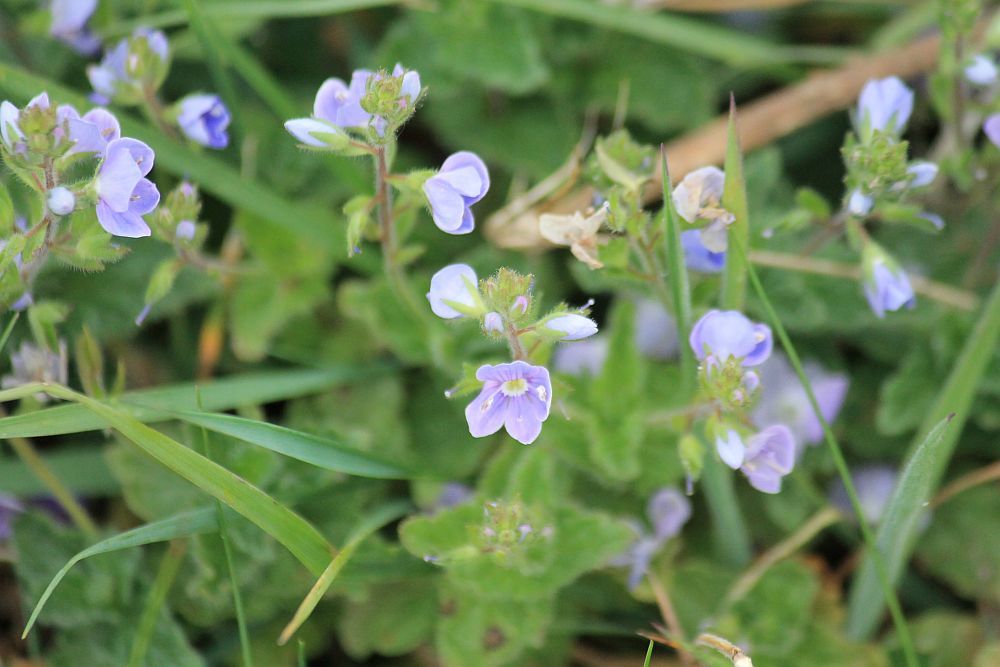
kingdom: Plantae
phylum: Tracheophyta
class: Magnoliopsida
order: Lamiales
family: Plantaginaceae
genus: Veronica
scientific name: Veronica chamaedrys
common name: Germander speedwell
